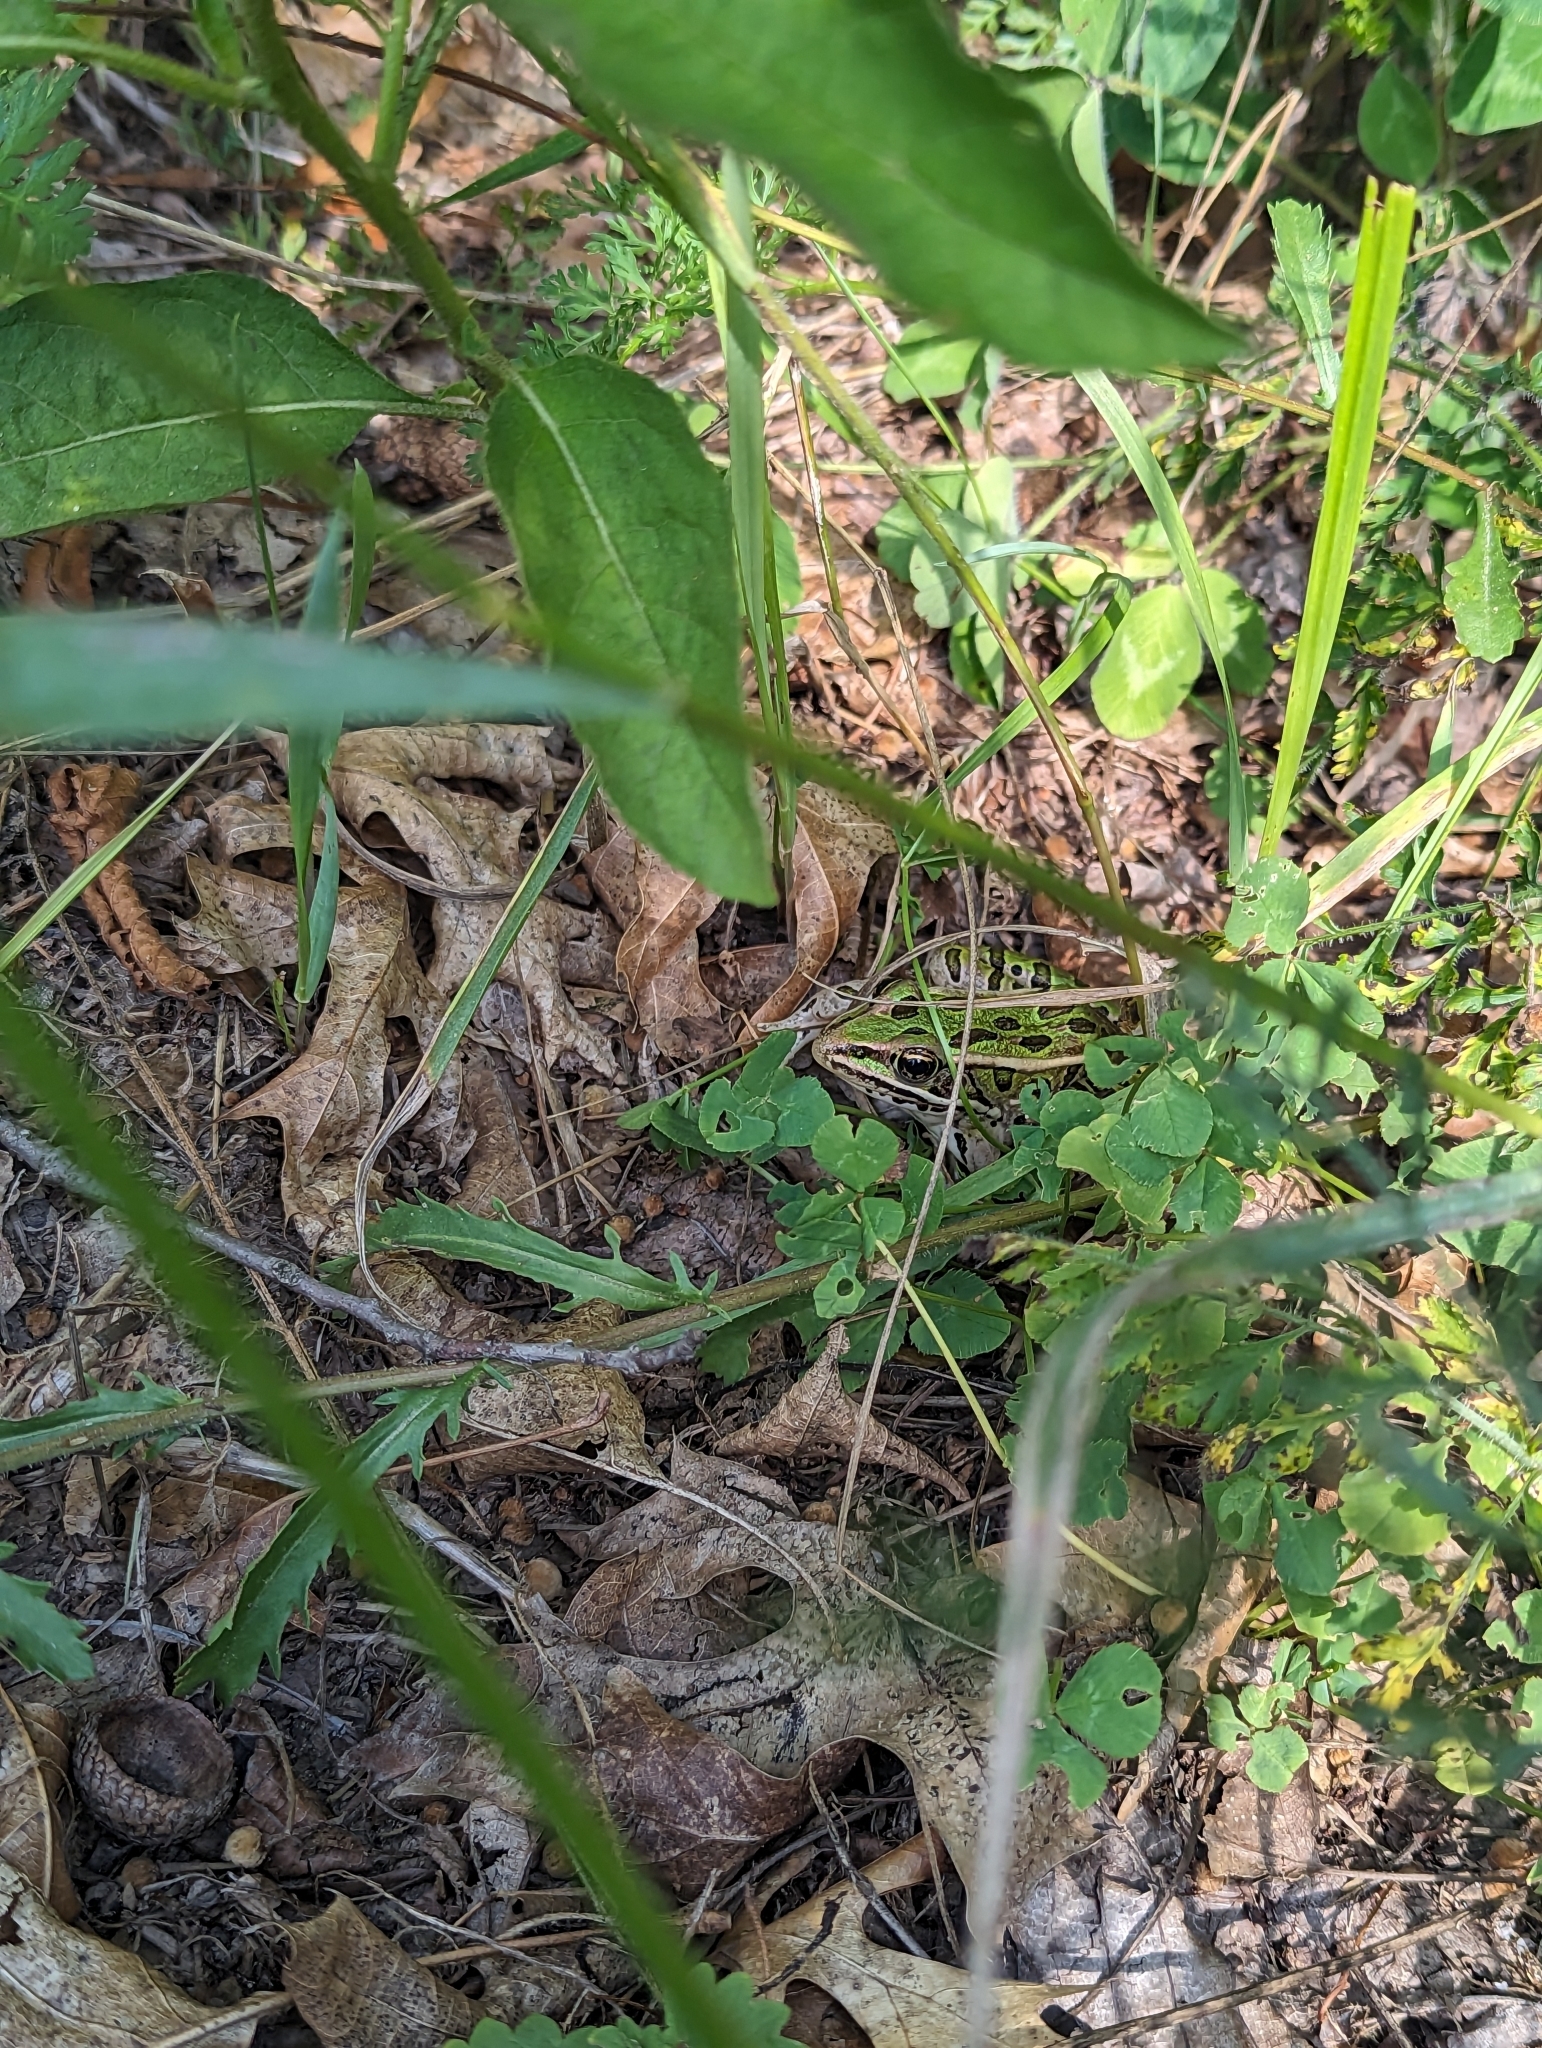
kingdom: Animalia
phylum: Chordata
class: Amphibia
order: Anura
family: Ranidae
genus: Lithobates
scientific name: Lithobates pipiens
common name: Northern leopard frog
